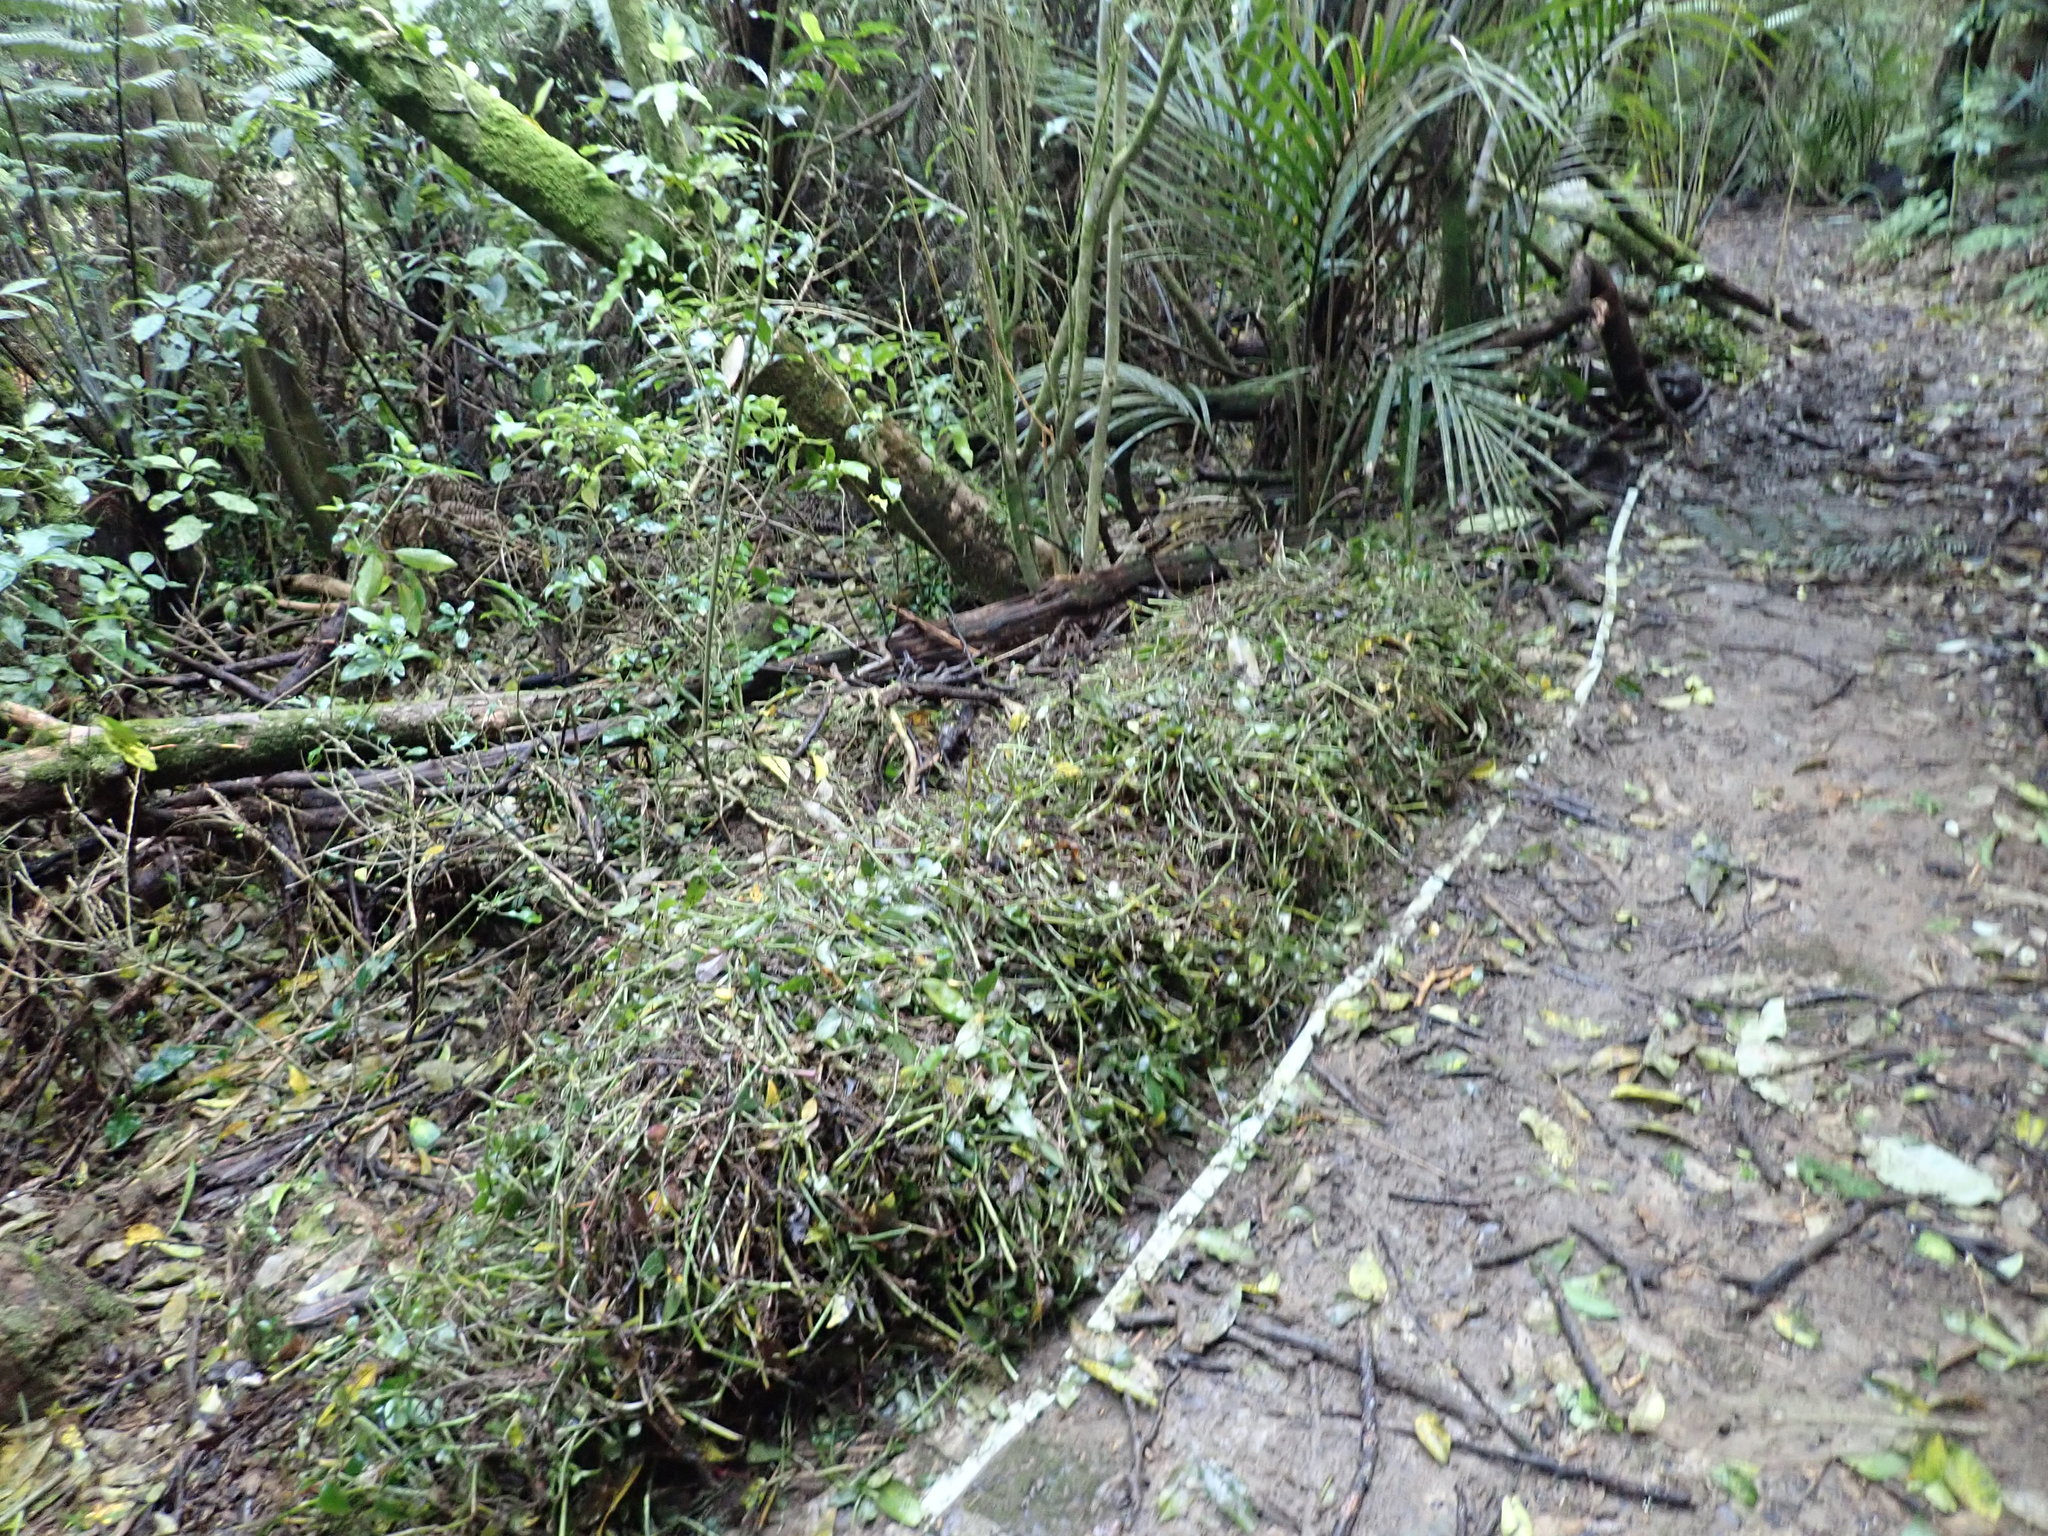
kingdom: Plantae
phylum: Tracheophyta
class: Liliopsida
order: Arecales
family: Arecaceae
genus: Rhopalostylis
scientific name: Rhopalostylis sapida
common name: Feather-duster palm
